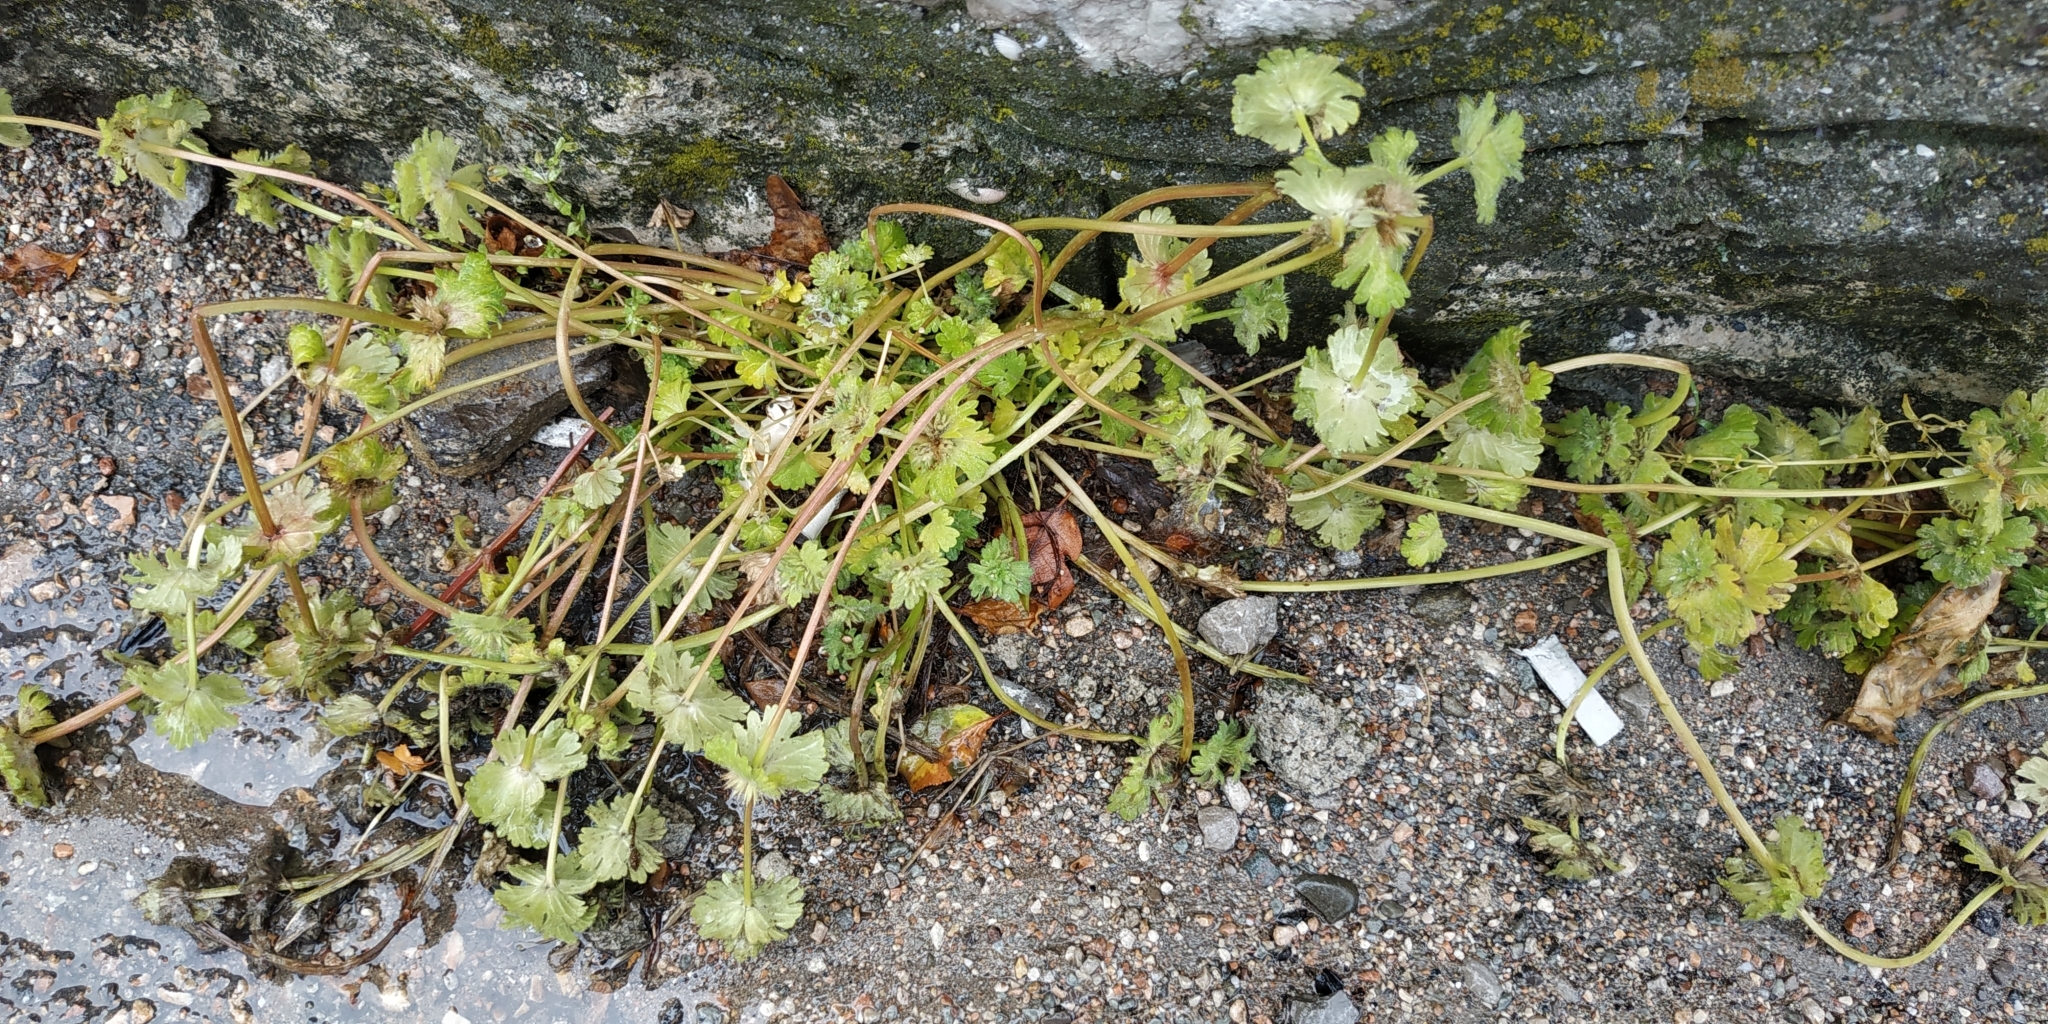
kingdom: Plantae
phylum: Tracheophyta
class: Magnoliopsida
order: Lamiales
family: Lamiaceae
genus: Lamium
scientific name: Lamium amplexicaule
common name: Henbit dead-nettle
